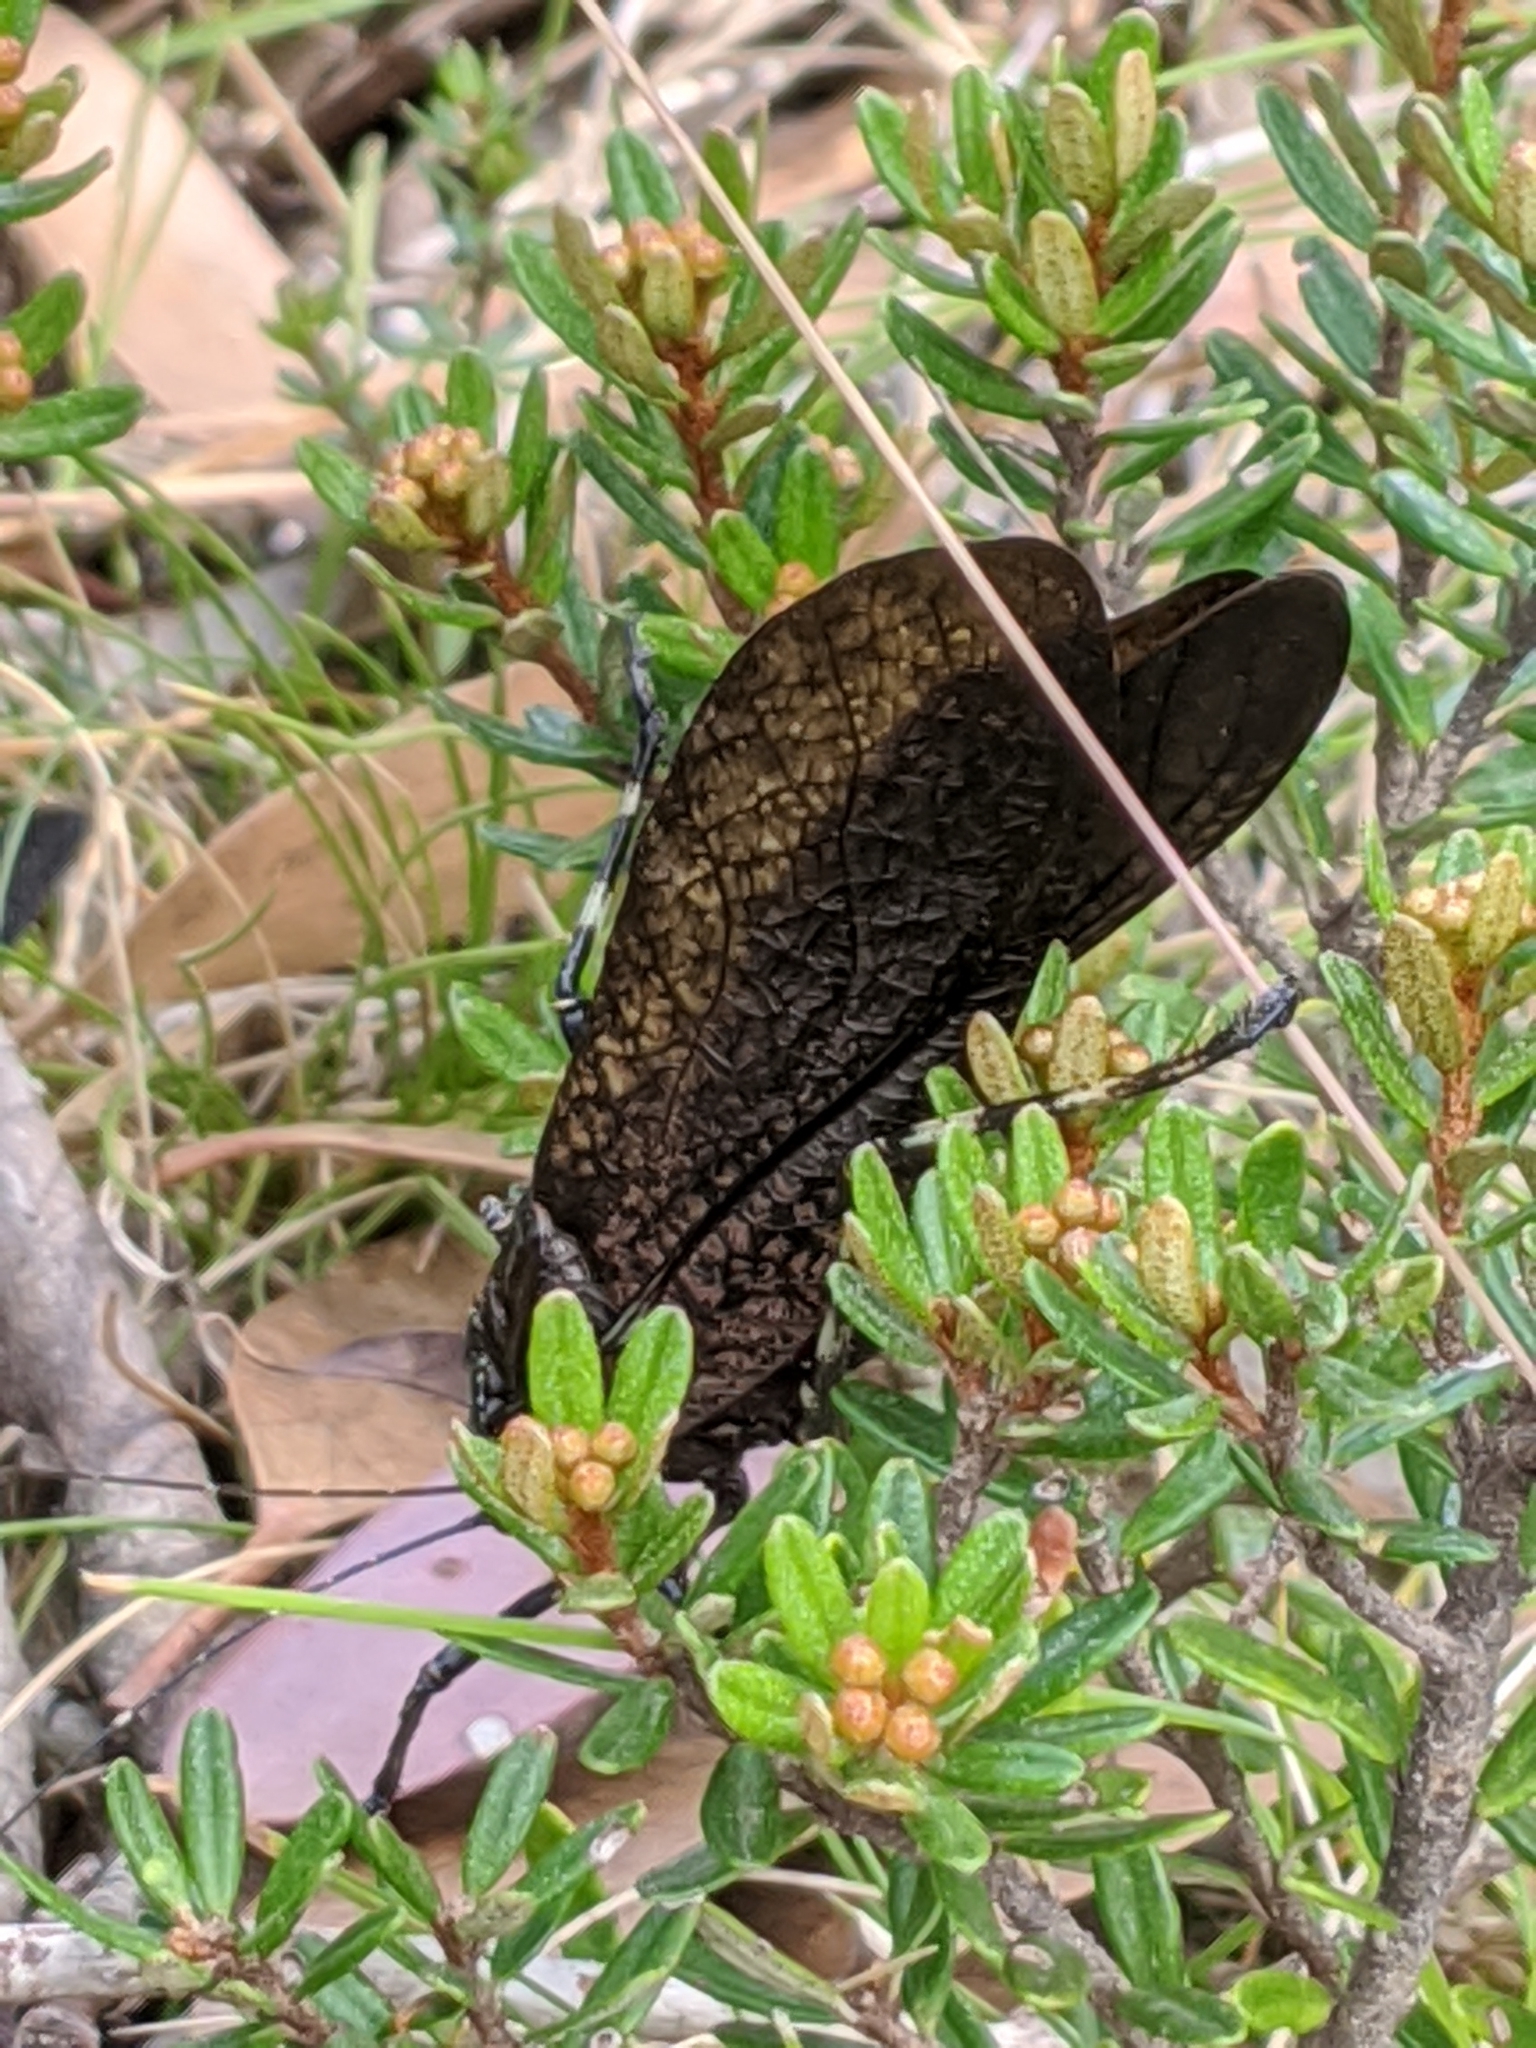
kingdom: Animalia
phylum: Arthropoda
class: Insecta
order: Orthoptera
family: Tettigoniidae
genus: Acripeza
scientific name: Acripeza reticulata
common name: Mountain katydid
